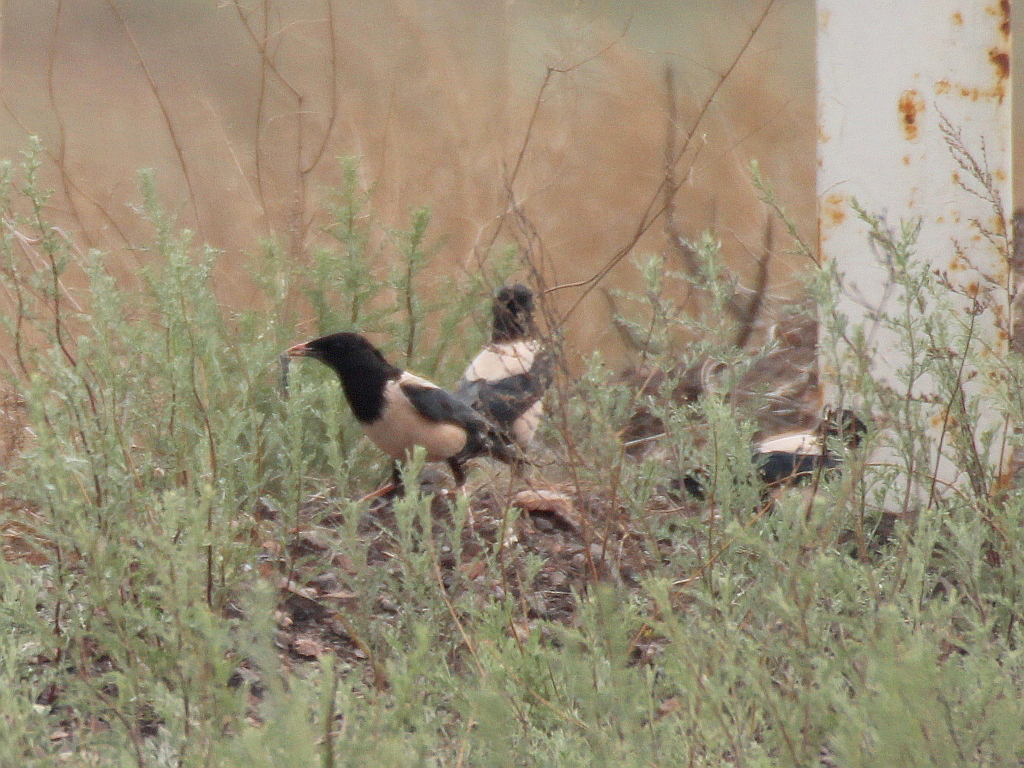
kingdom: Animalia
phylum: Chordata
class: Aves
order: Passeriformes
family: Sturnidae
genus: Pastor
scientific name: Pastor roseus
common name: Rosy starling
